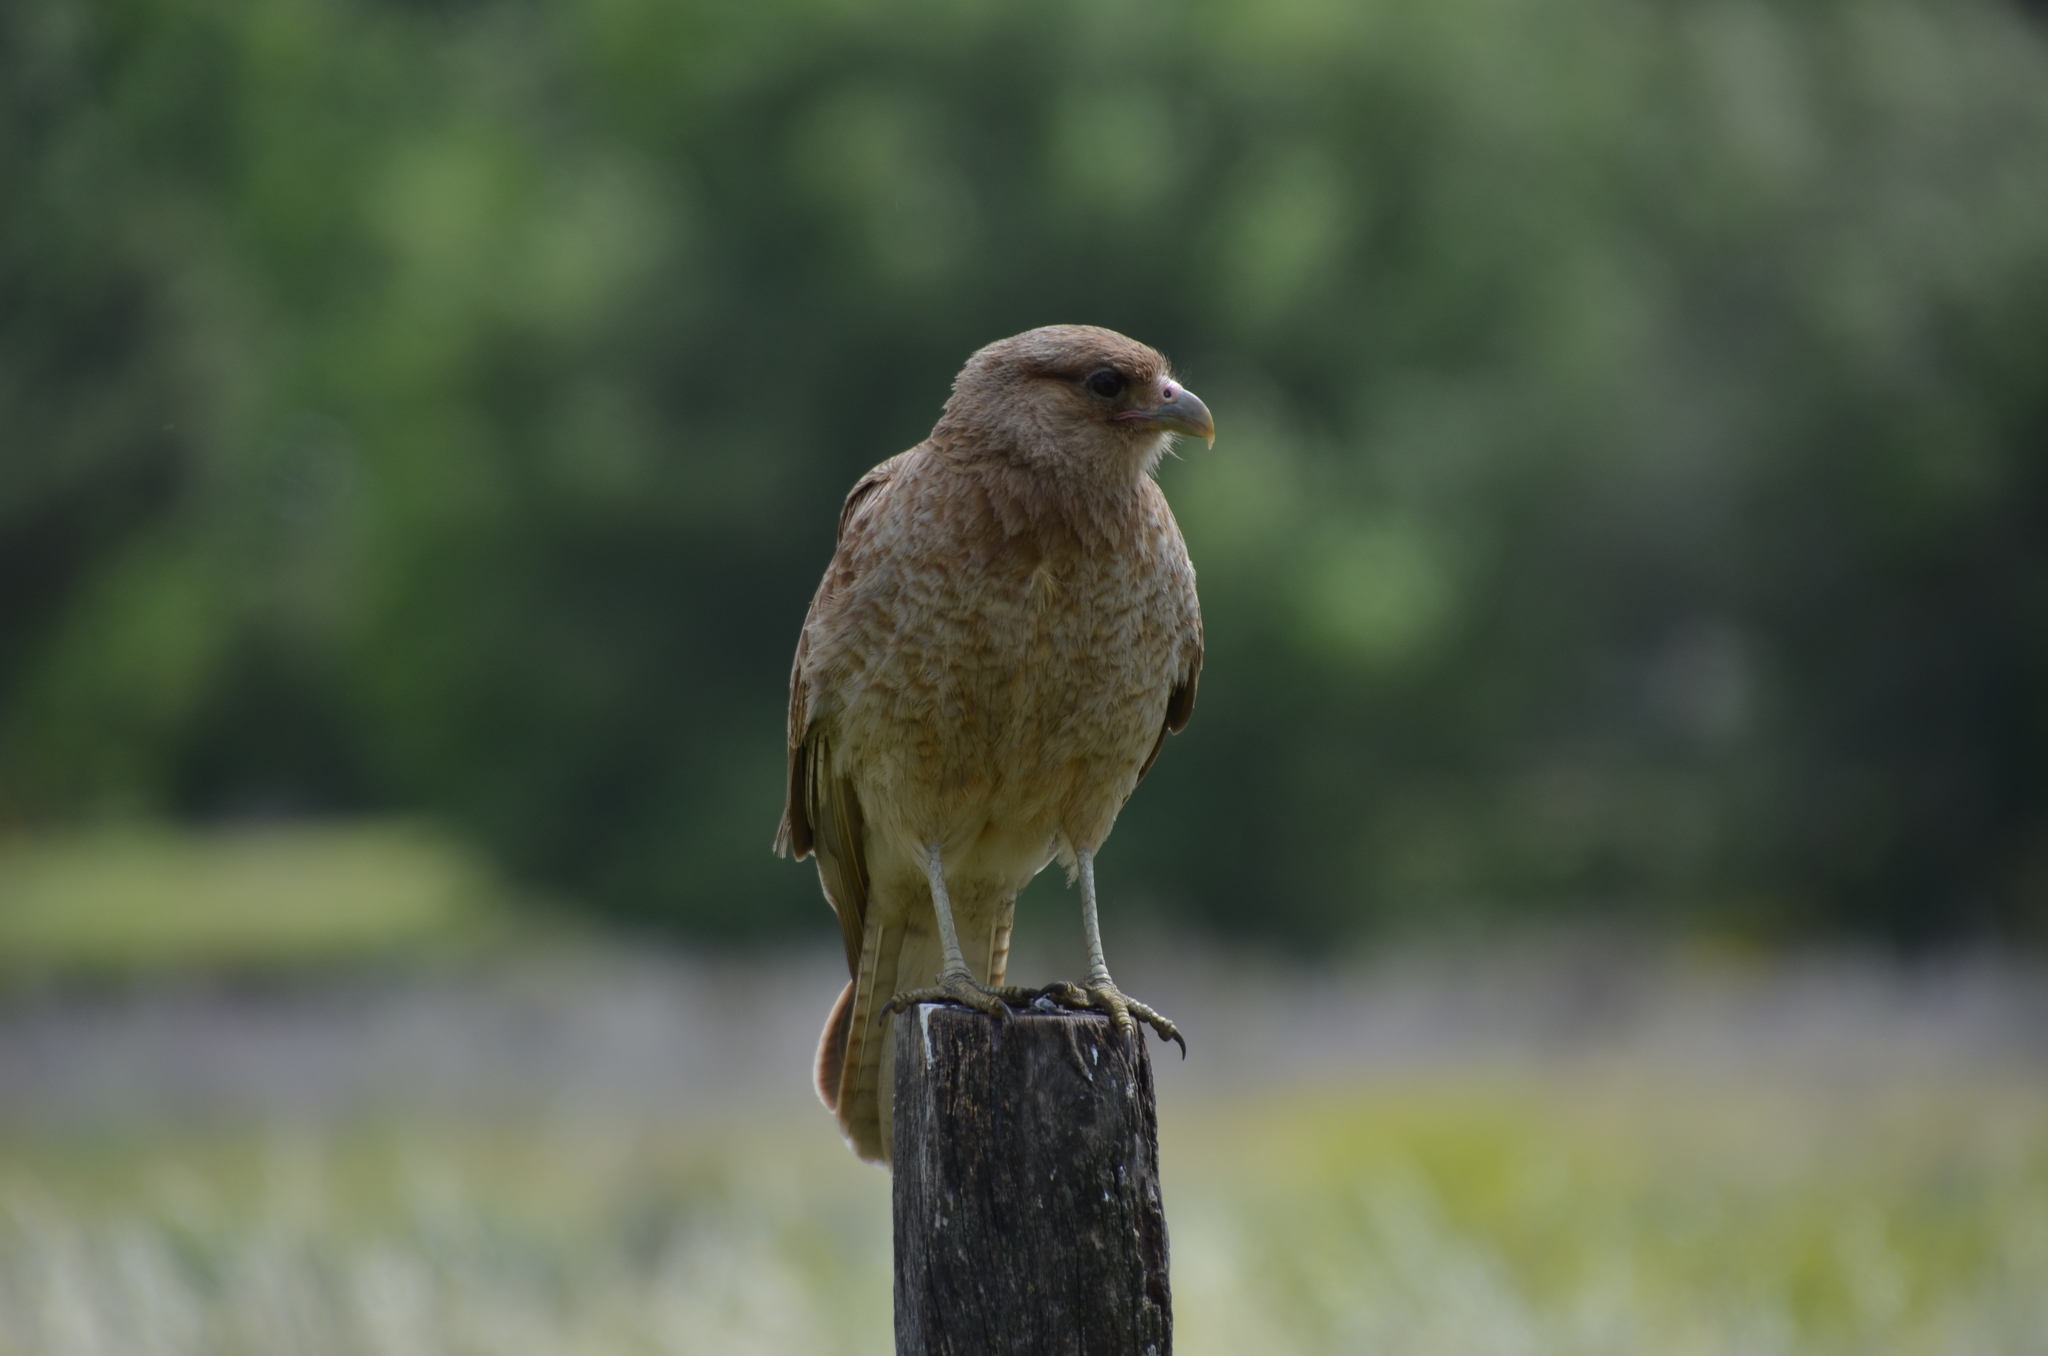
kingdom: Animalia
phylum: Chordata
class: Aves
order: Falconiformes
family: Falconidae
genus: Daptrius
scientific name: Daptrius
